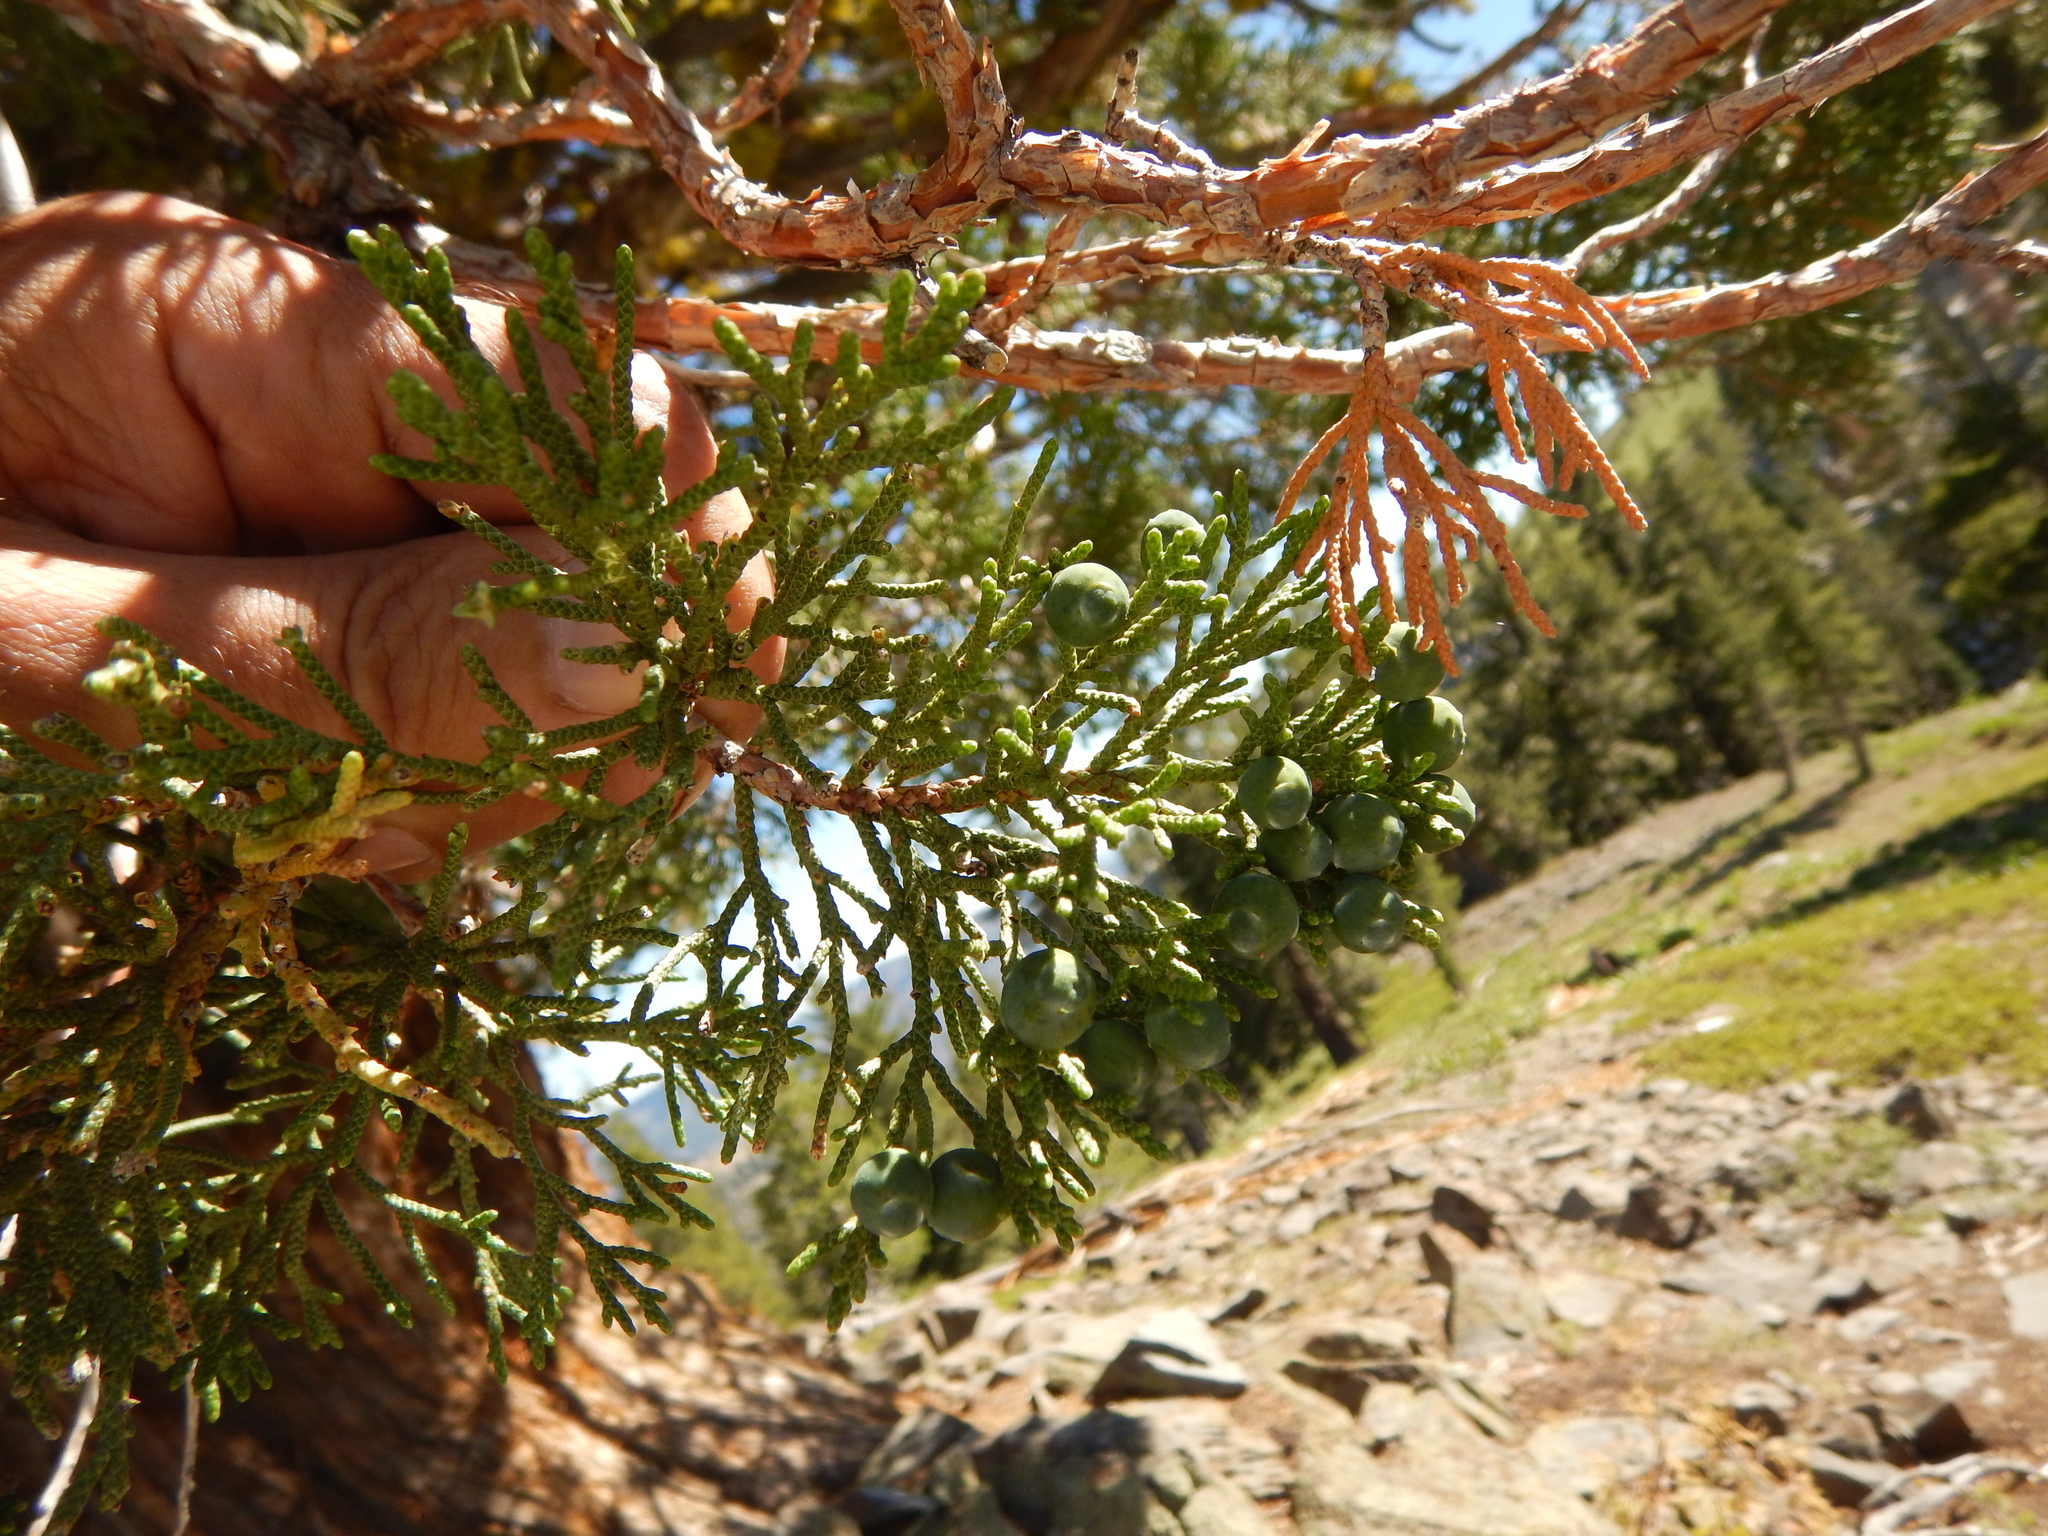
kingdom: Plantae
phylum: Tracheophyta
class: Pinopsida
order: Pinales
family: Cupressaceae
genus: Juniperus
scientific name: Juniperus occidentalis
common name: Western juniper
